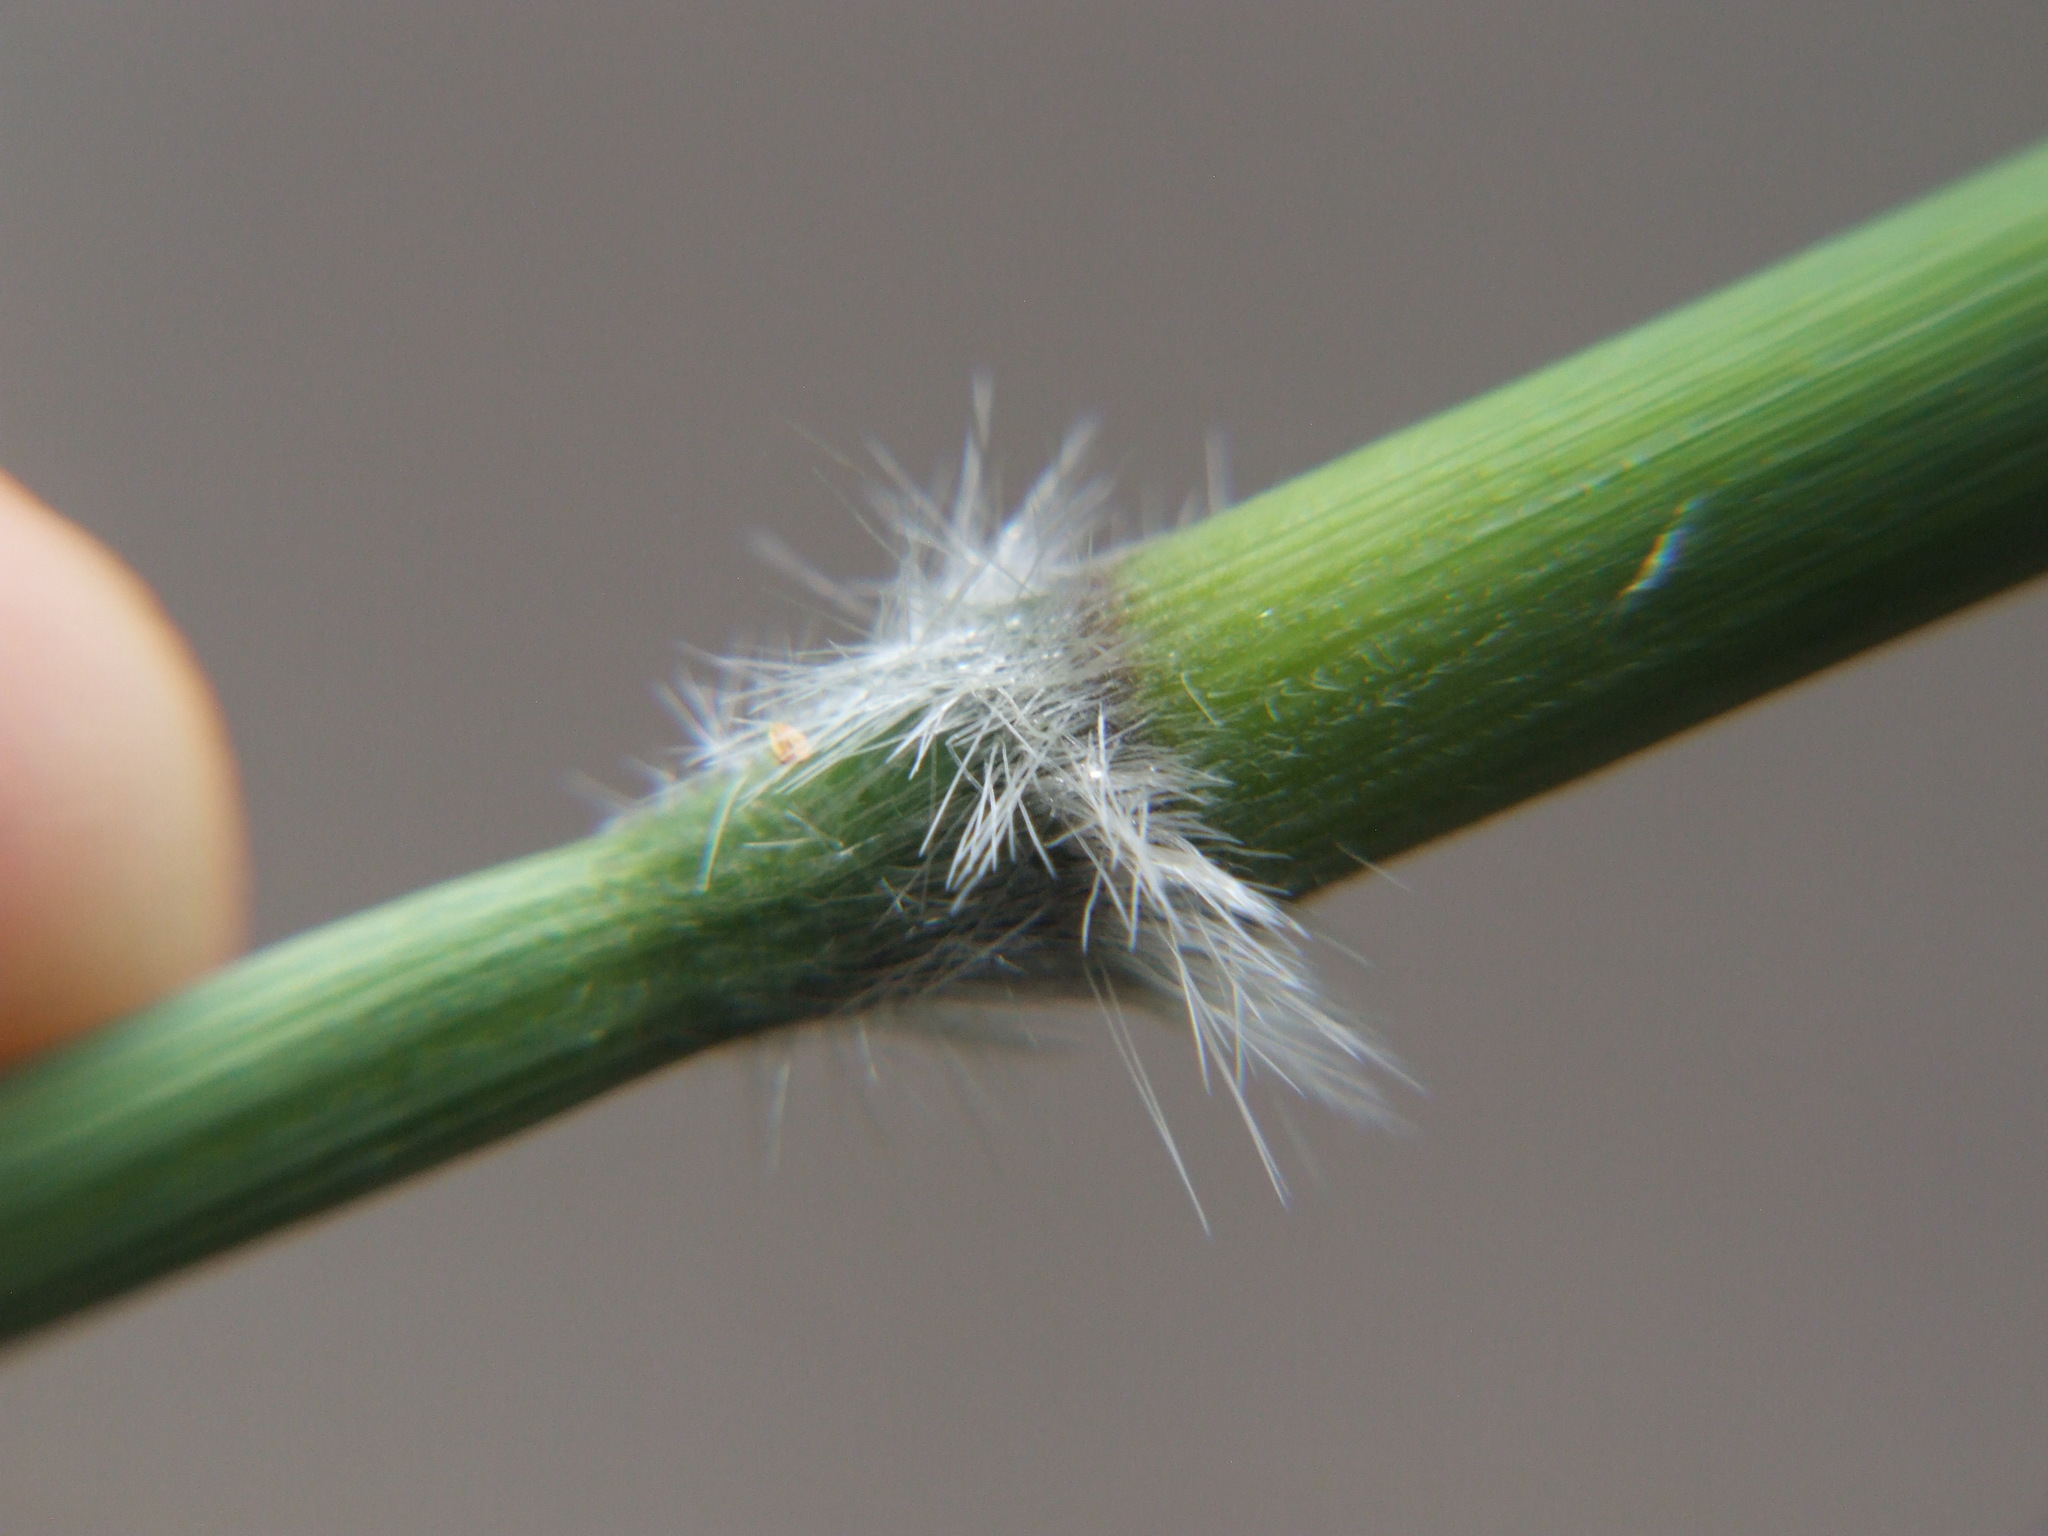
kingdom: Plantae
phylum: Tracheophyta
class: Liliopsida
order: Poales
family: Poaceae
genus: Cenchrus
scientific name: Cenchrus latifolius
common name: Sandbur
